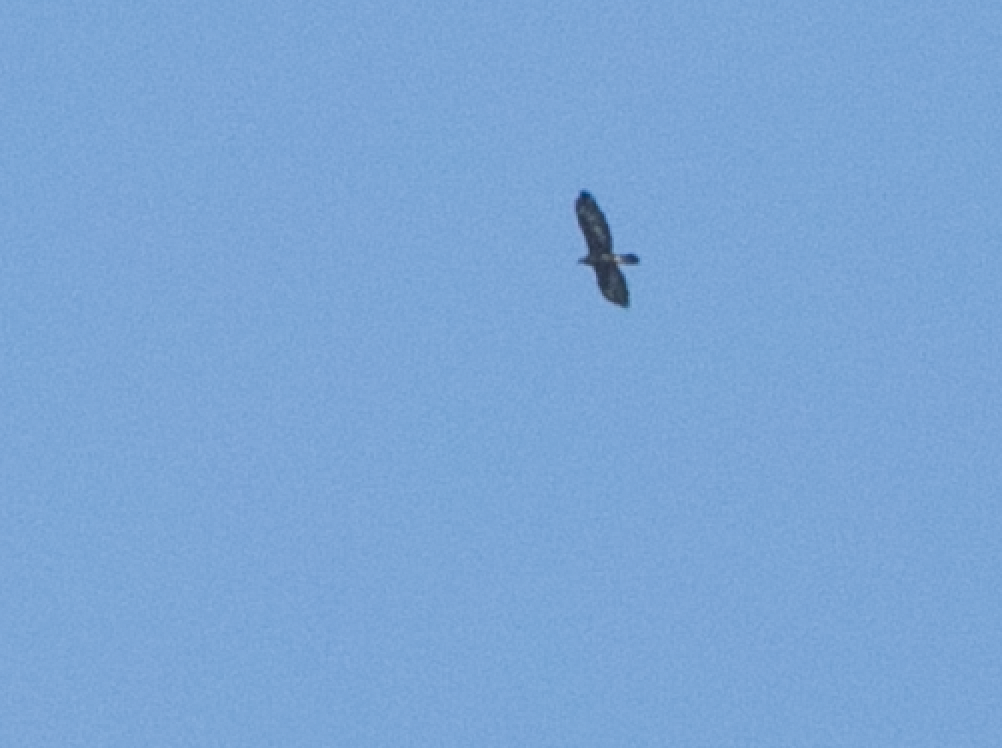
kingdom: Animalia
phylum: Chordata
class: Aves
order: Accipitriformes
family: Accipitridae
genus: Aquila
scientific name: Aquila chrysaetos
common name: Golden eagle
